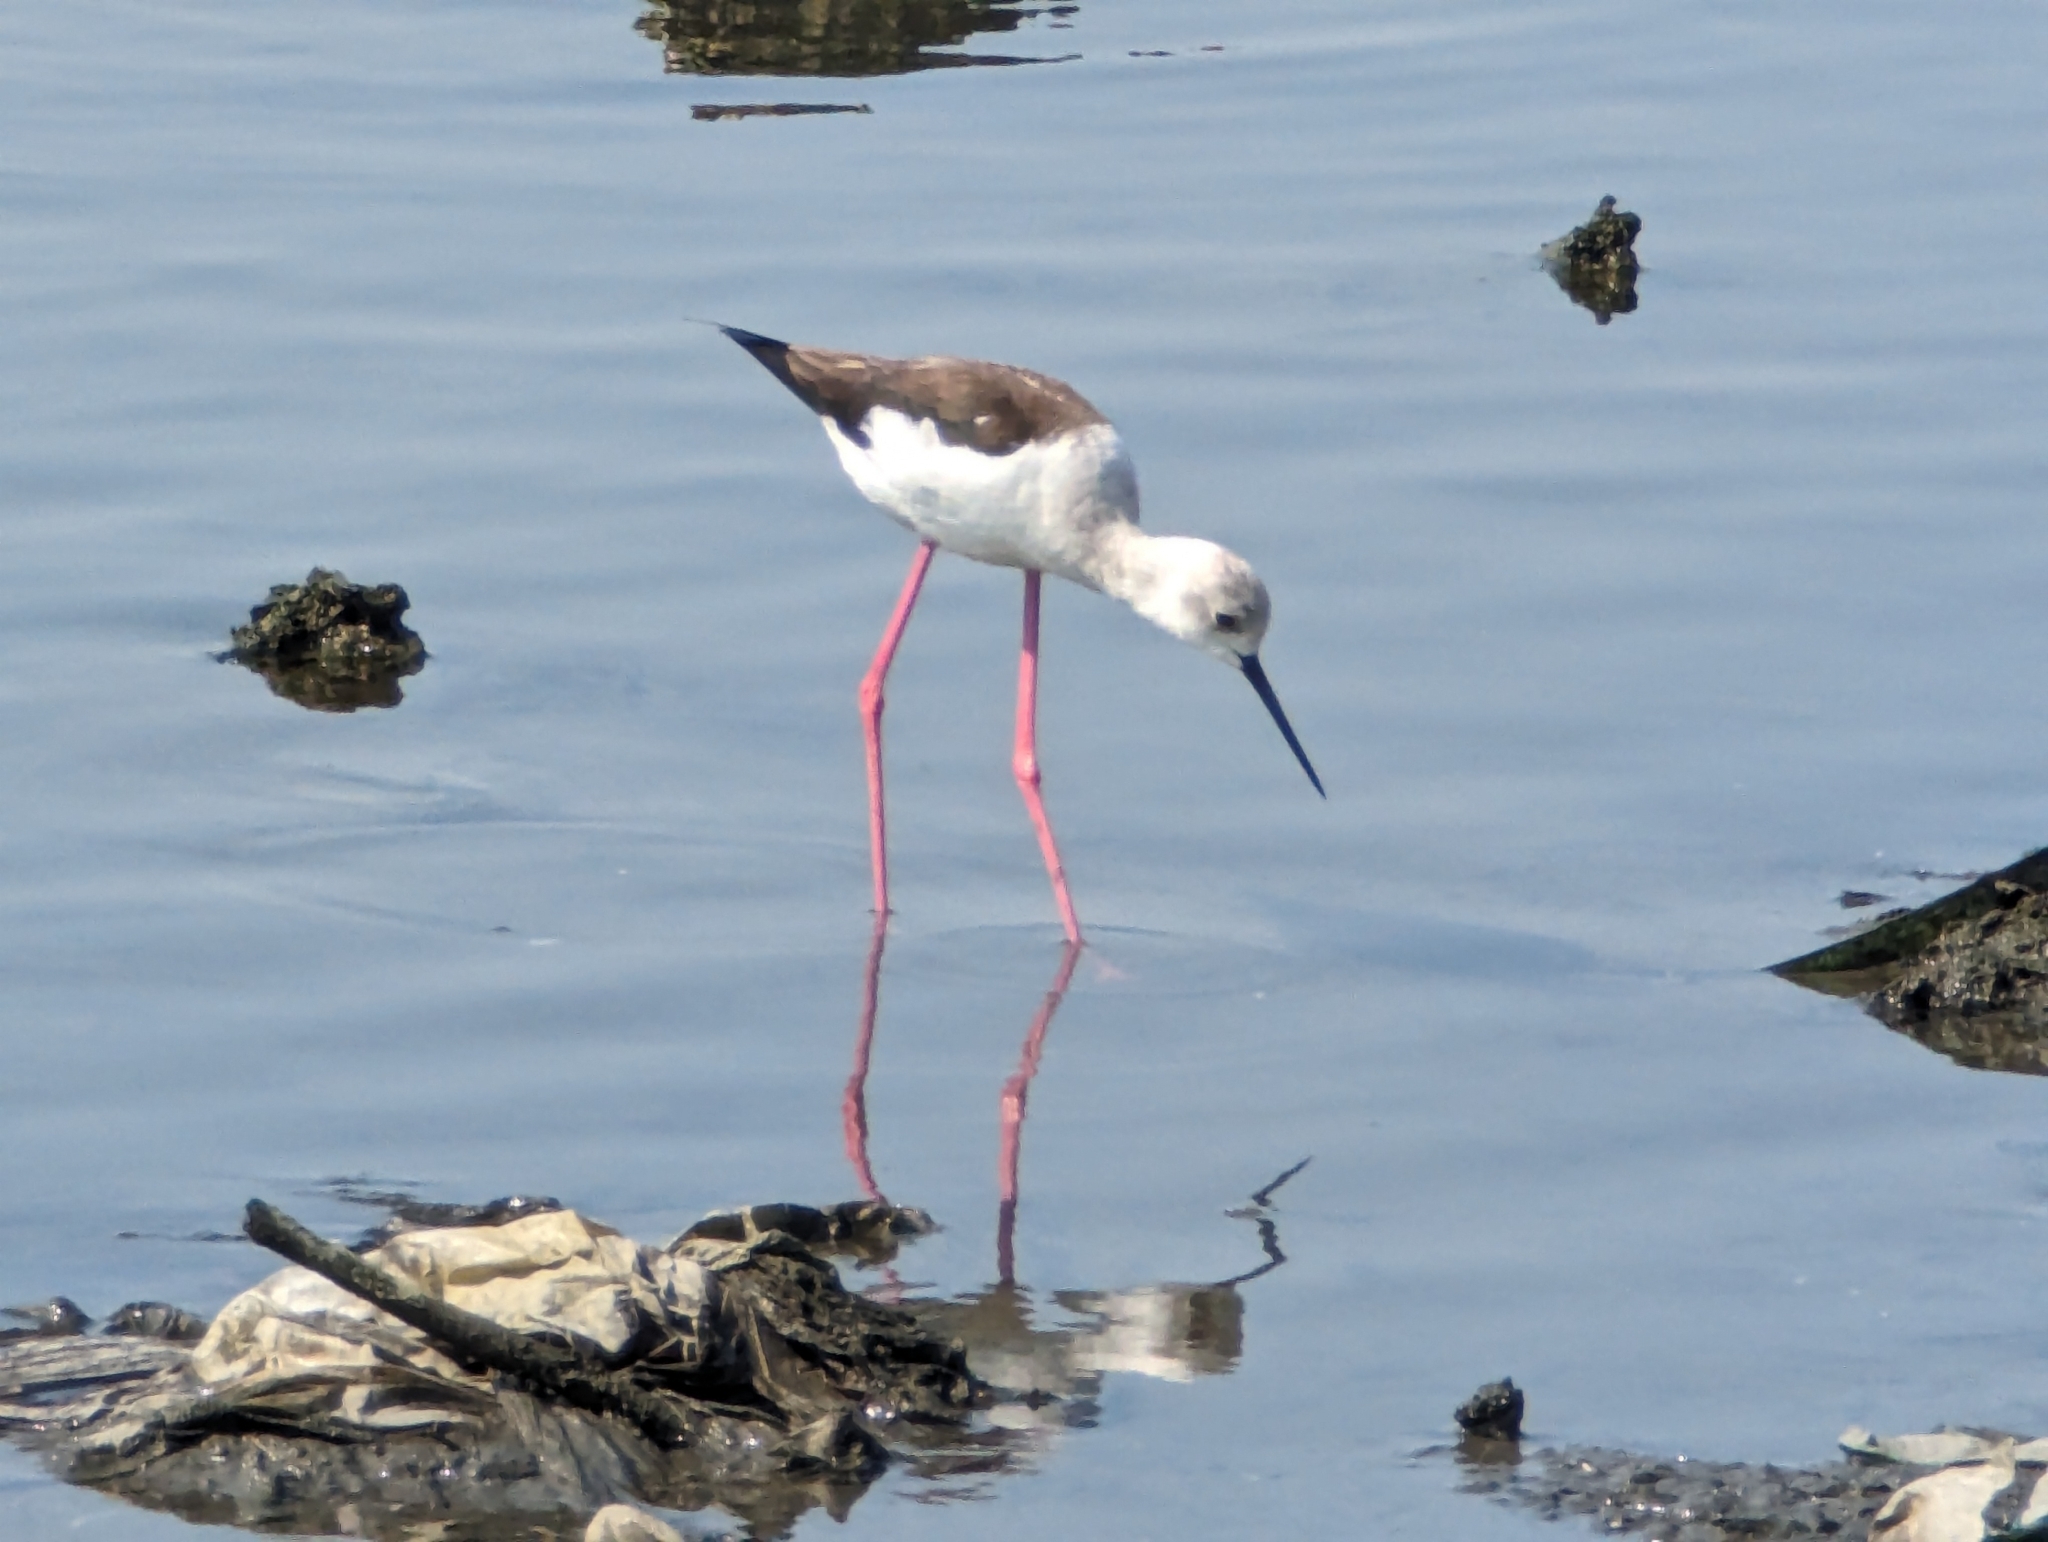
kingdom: Animalia
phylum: Chordata
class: Aves
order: Charadriiformes
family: Recurvirostridae
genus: Himantopus
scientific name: Himantopus himantopus
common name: Black-winged stilt
